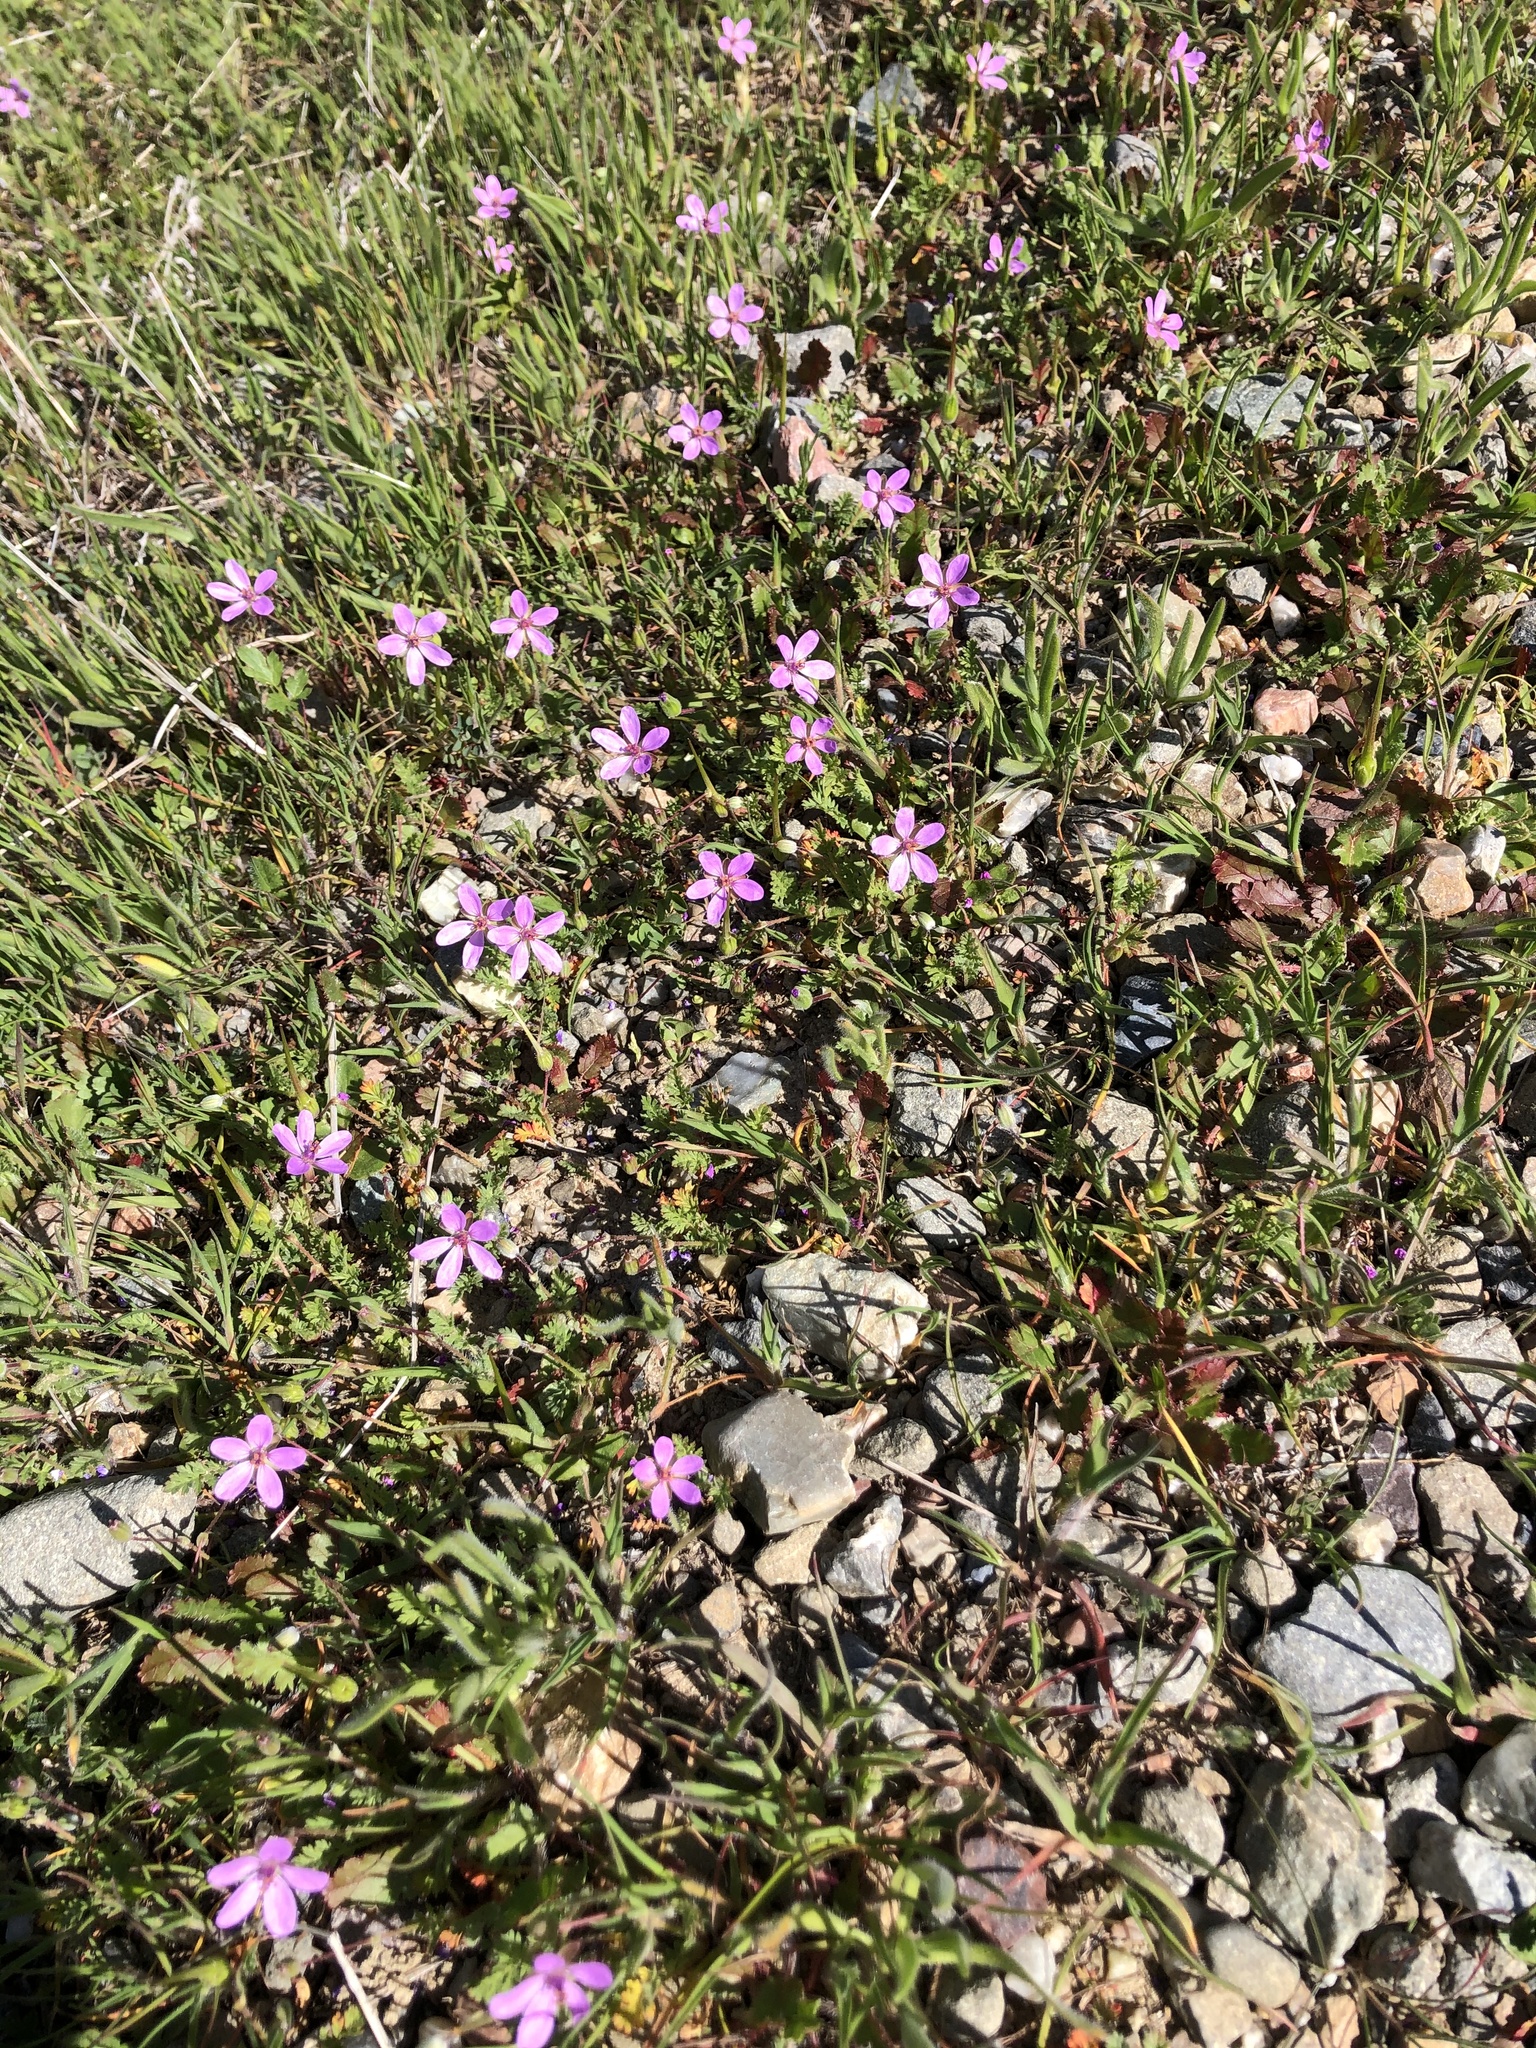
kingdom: Plantae
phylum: Tracheophyta
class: Magnoliopsida
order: Geraniales
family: Geraniaceae
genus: Erodium
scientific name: Erodium cicutarium
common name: Common stork's-bill
